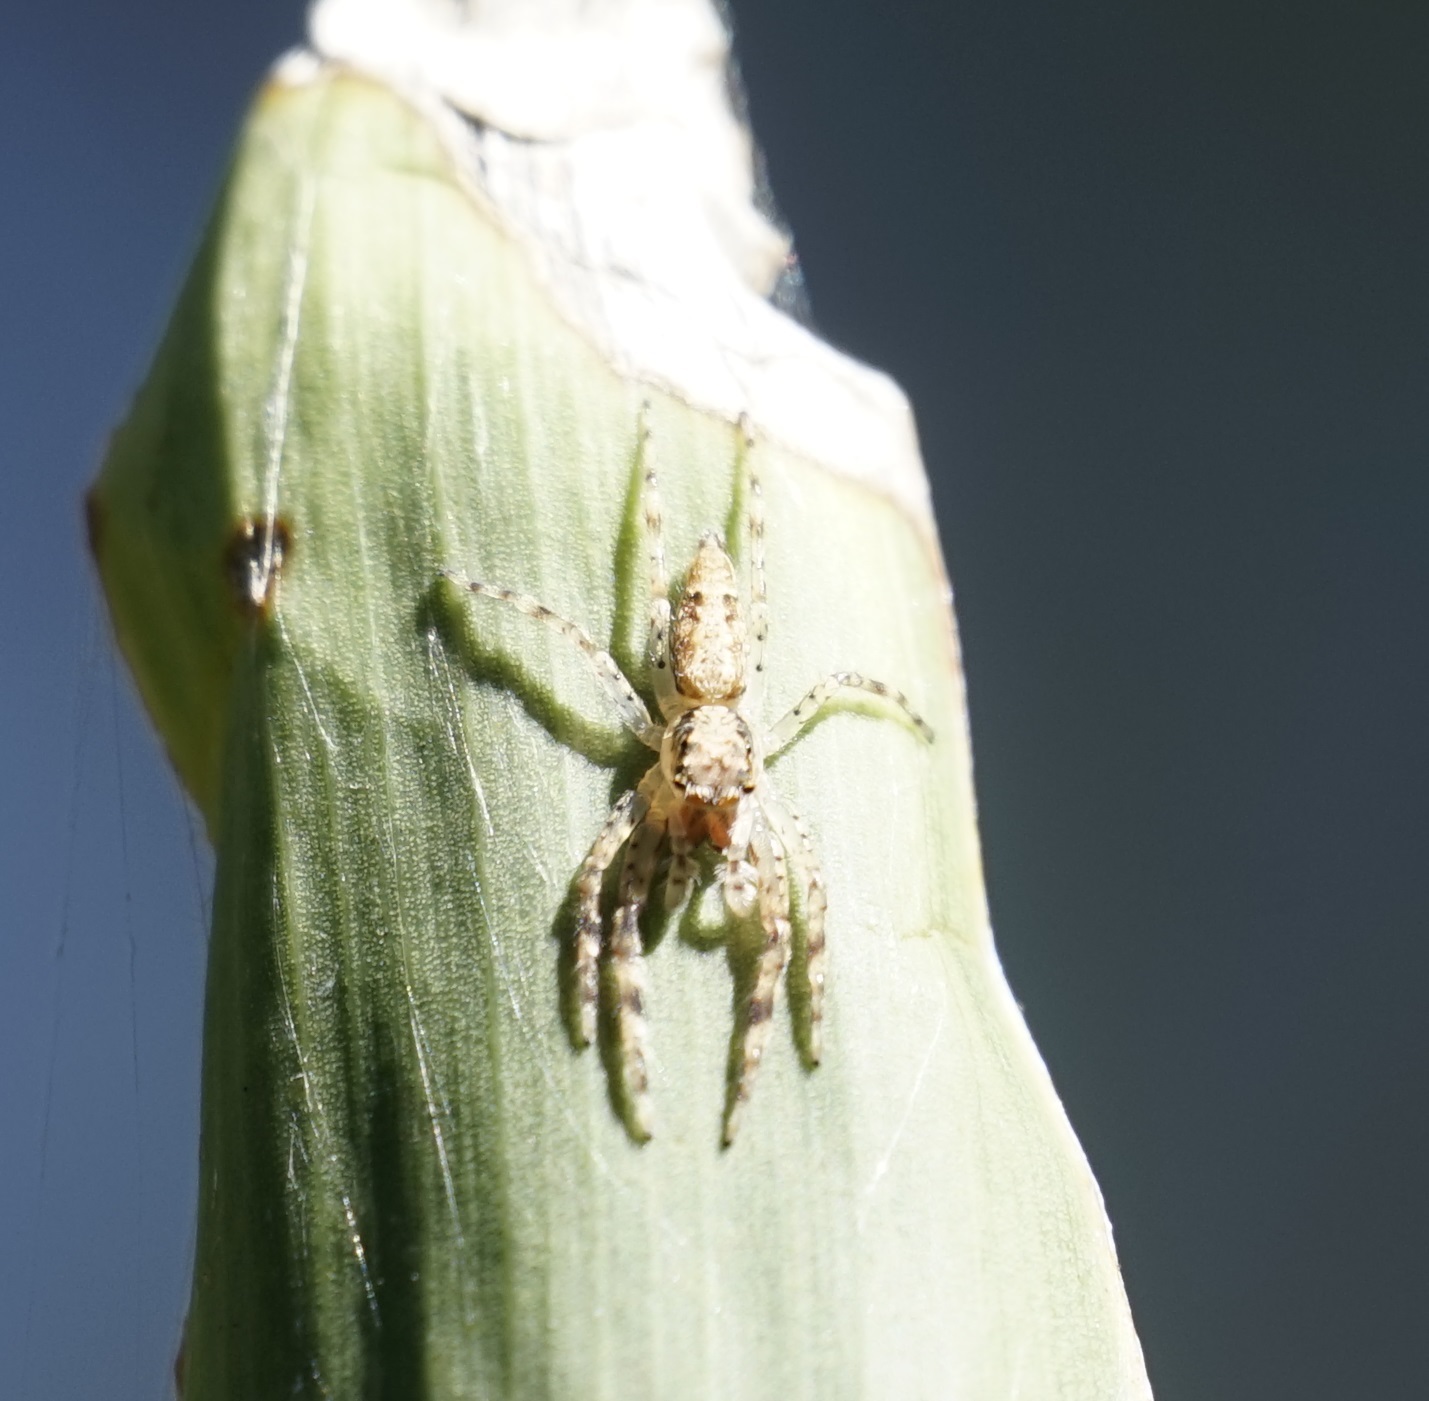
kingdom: Animalia
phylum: Arthropoda
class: Arachnida
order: Araneae
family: Salticidae
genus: Helpis
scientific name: Helpis minitabunda
